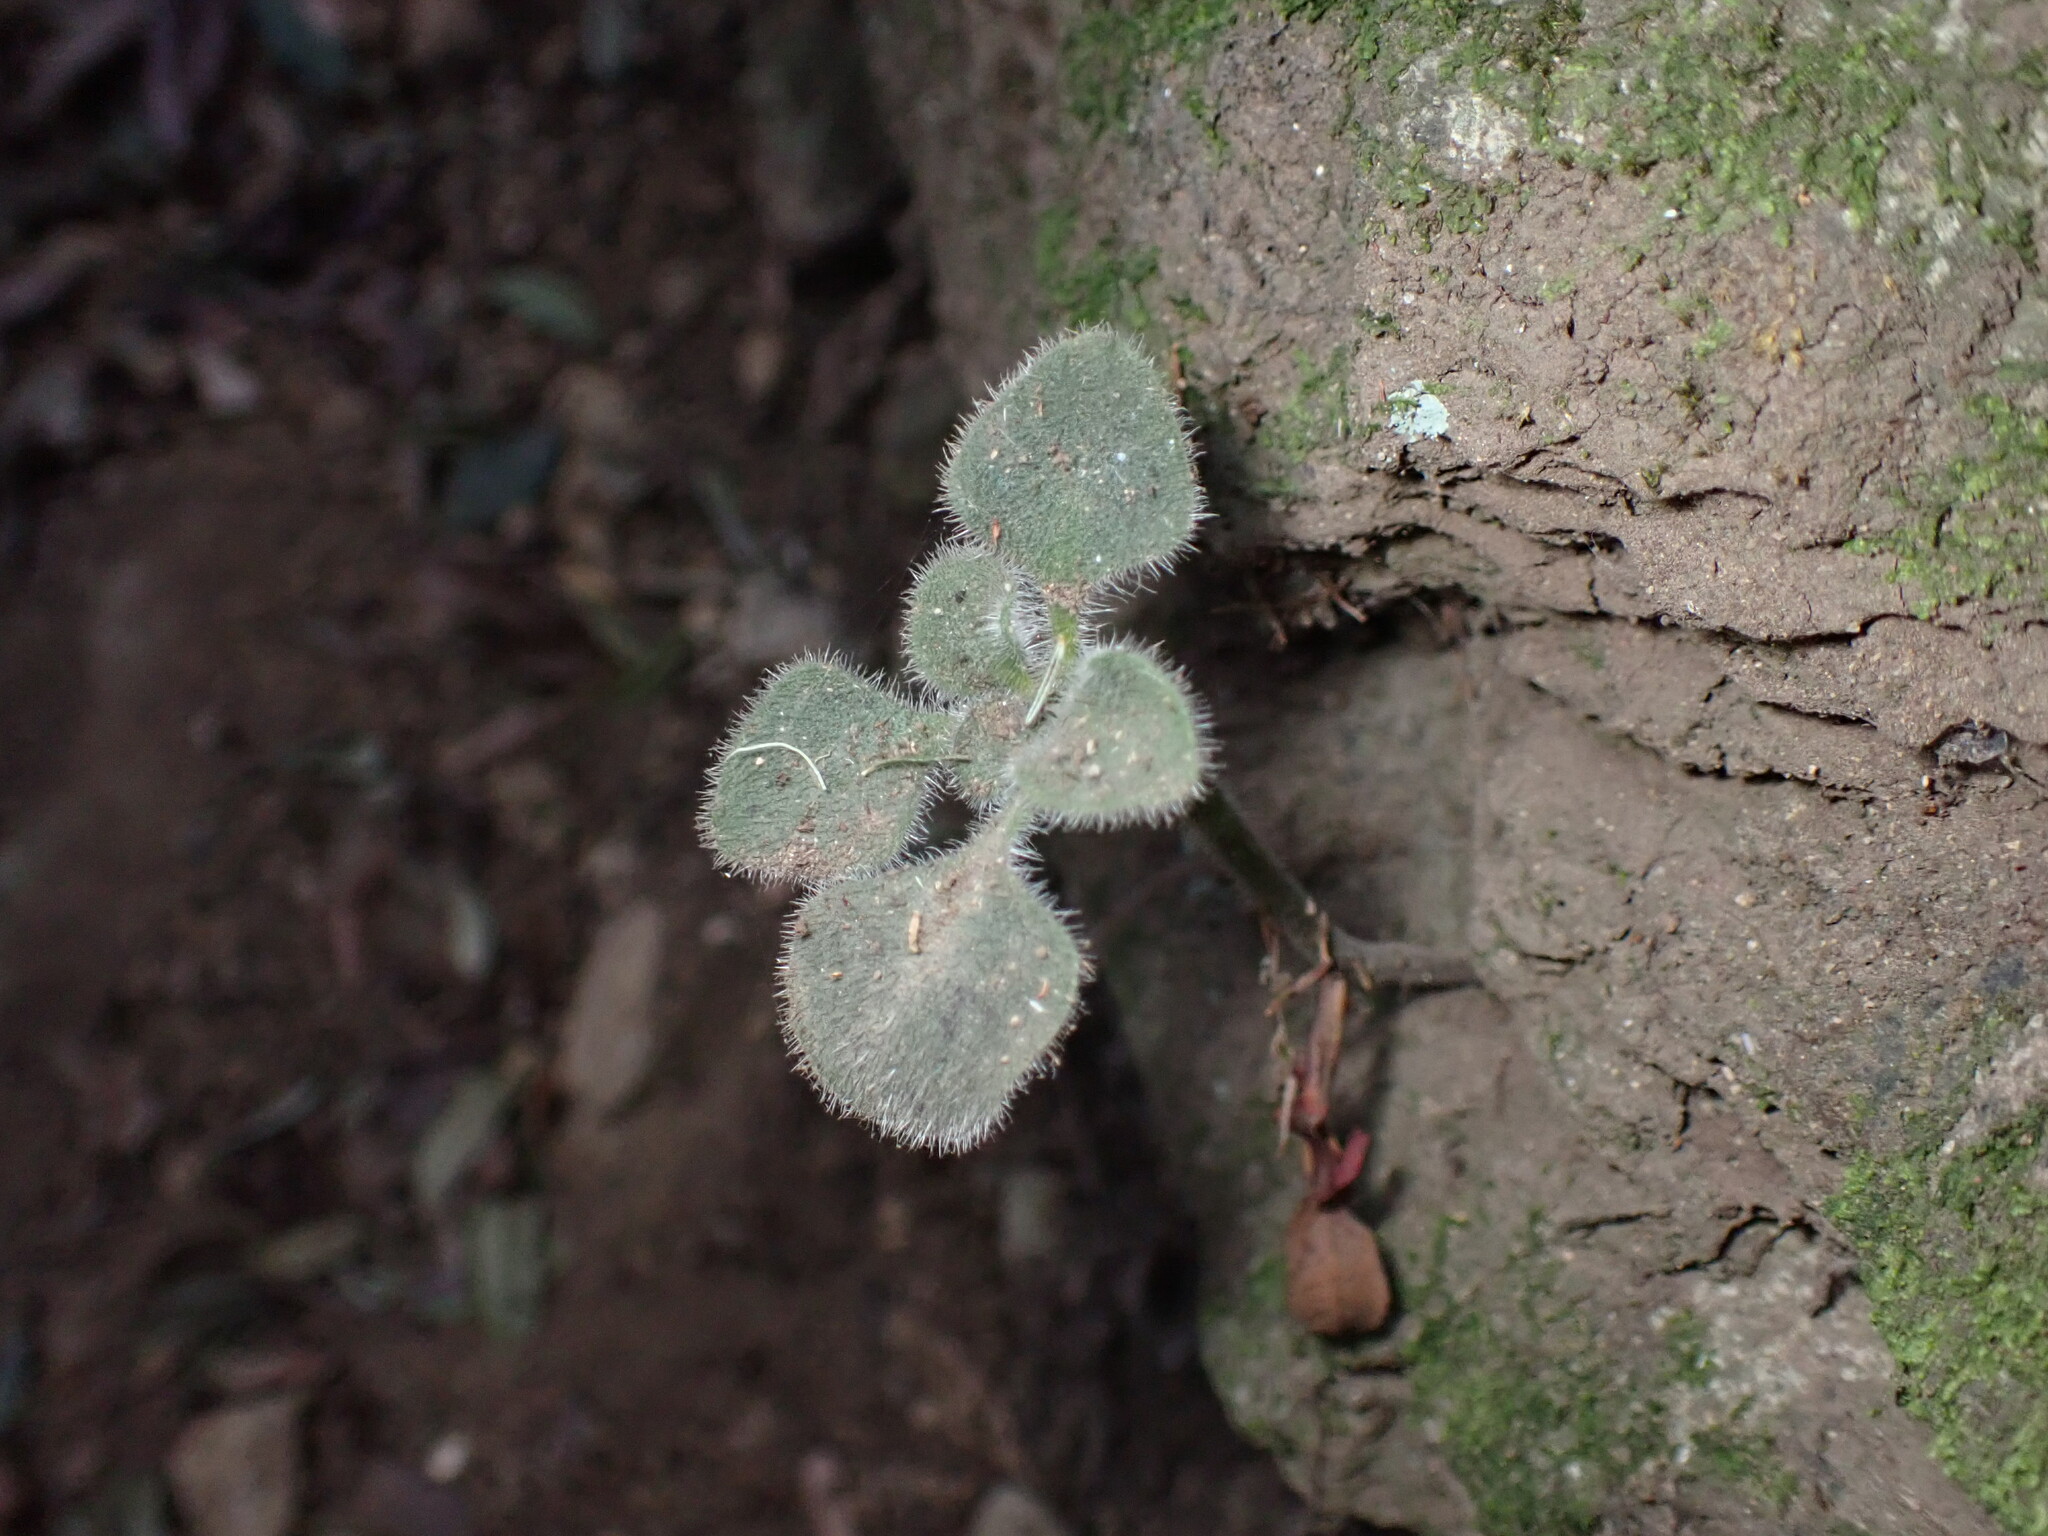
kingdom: Plantae
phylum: Tracheophyta
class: Magnoliopsida
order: Saxifragales
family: Crassulaceae
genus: Aichryson
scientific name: Aichryson laxum
